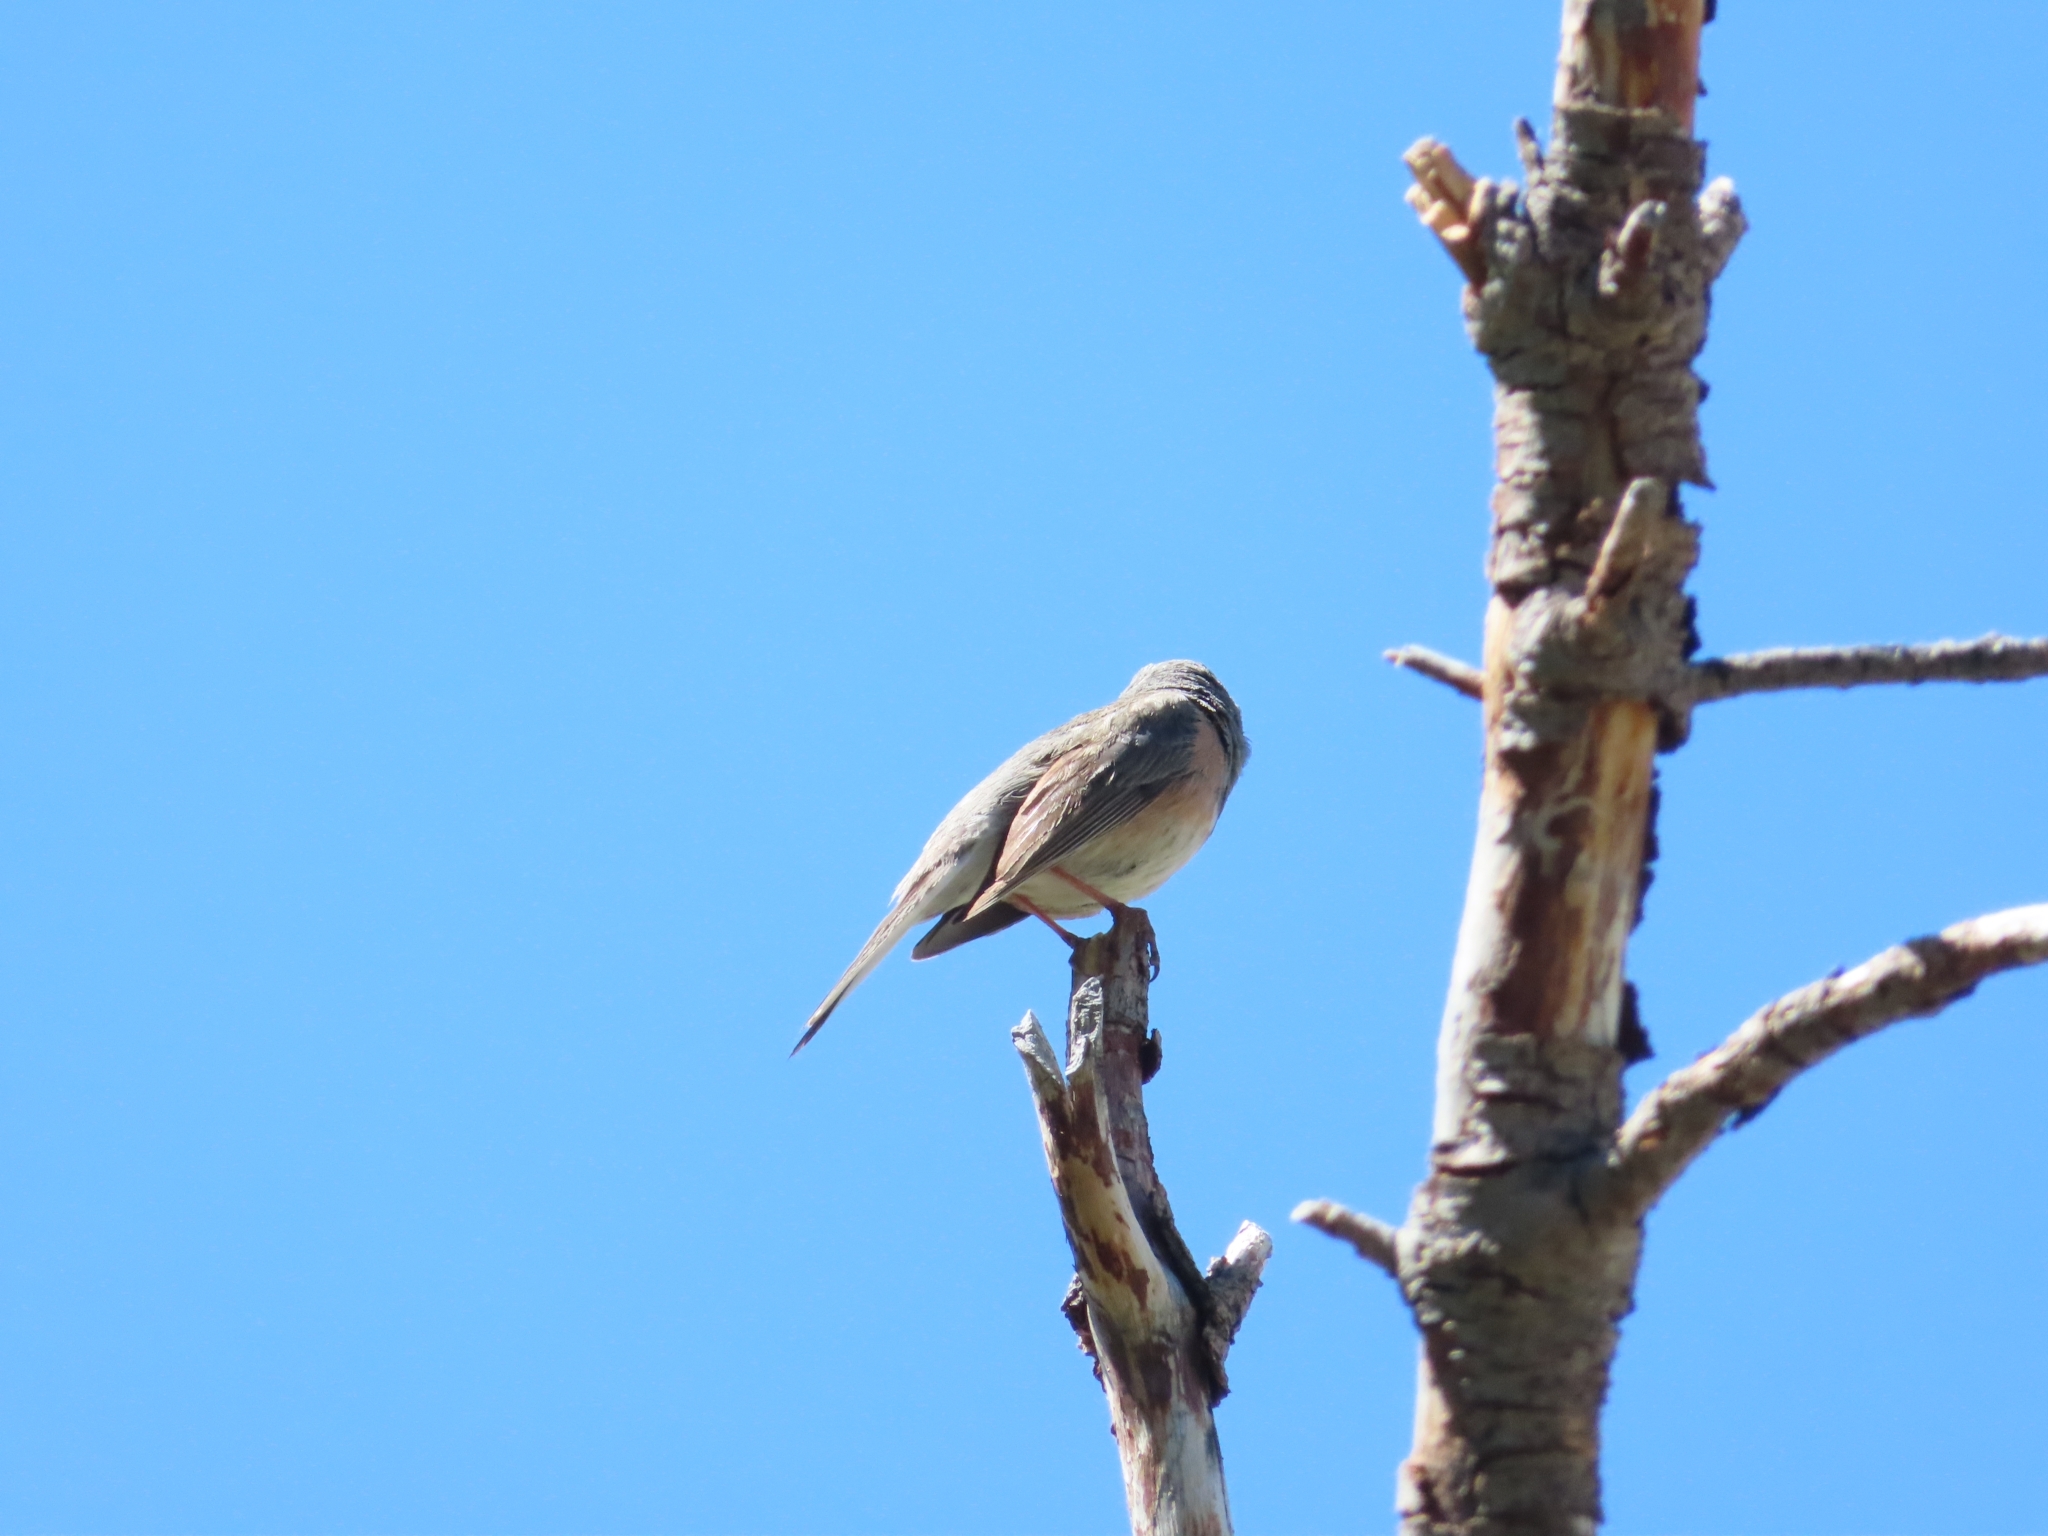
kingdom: Animalia
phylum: Chordata
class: Aves
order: Passeriformes
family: Passerellidae
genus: Junco
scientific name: Junco hyemalis
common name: Dark-eyed junco
